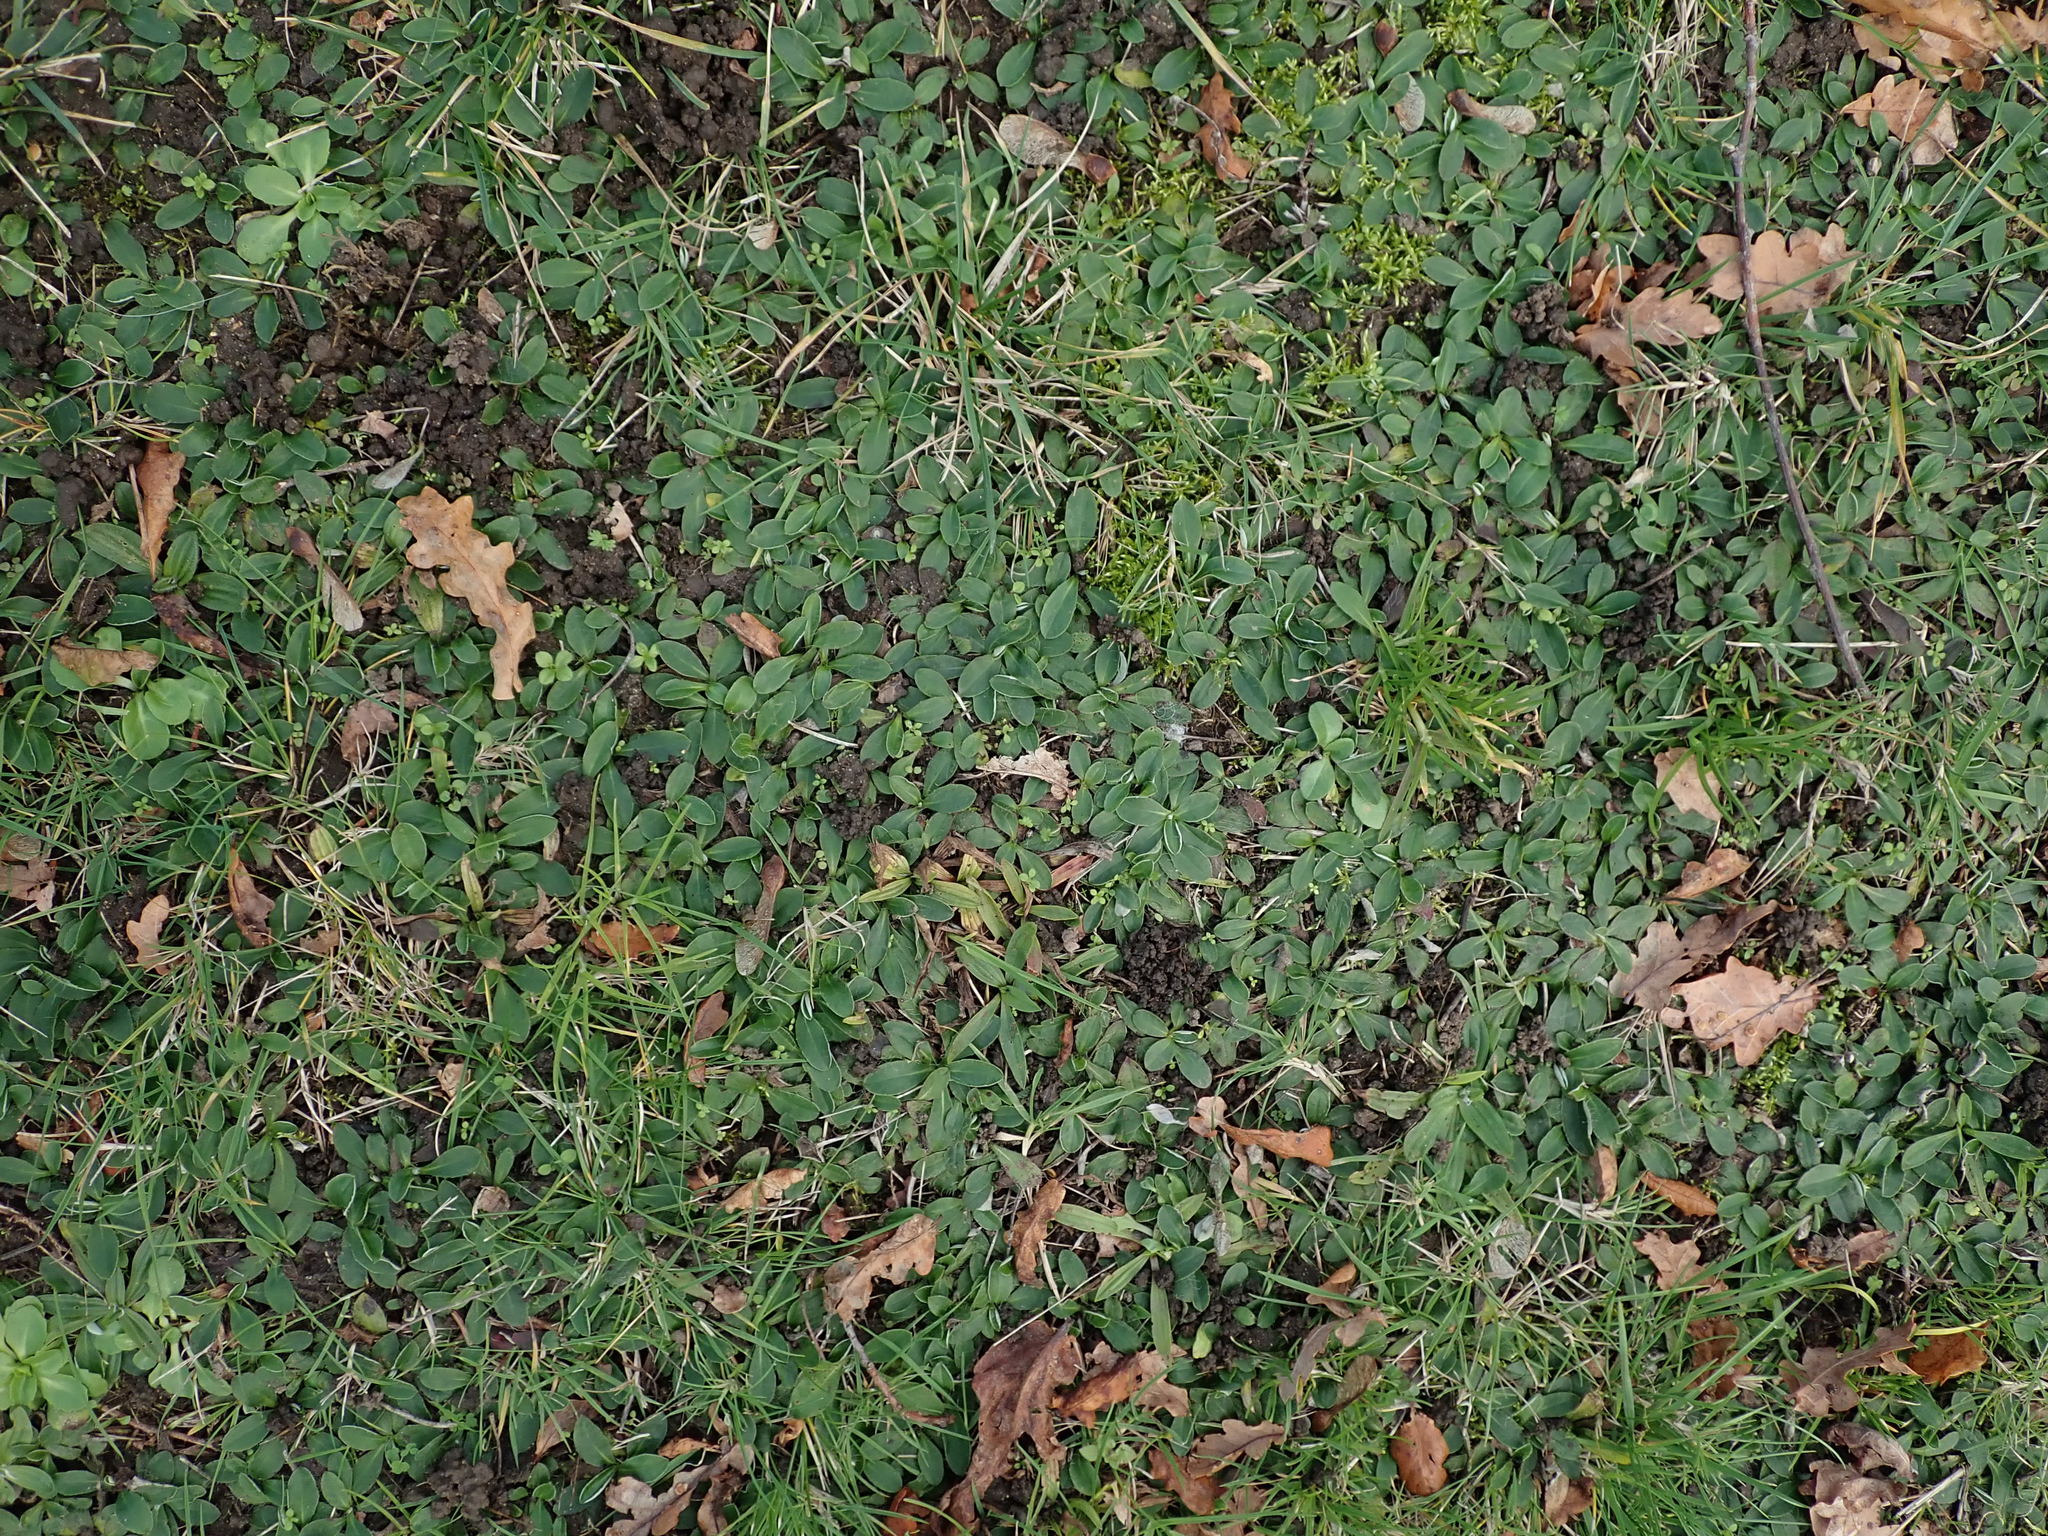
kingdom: Plantae
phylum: Tracheophyta
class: Magnoliopsida
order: Asterales
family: Asteraceae
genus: Pilosella
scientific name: Pilosella officinarum
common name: Mouse-ear hawkweed
